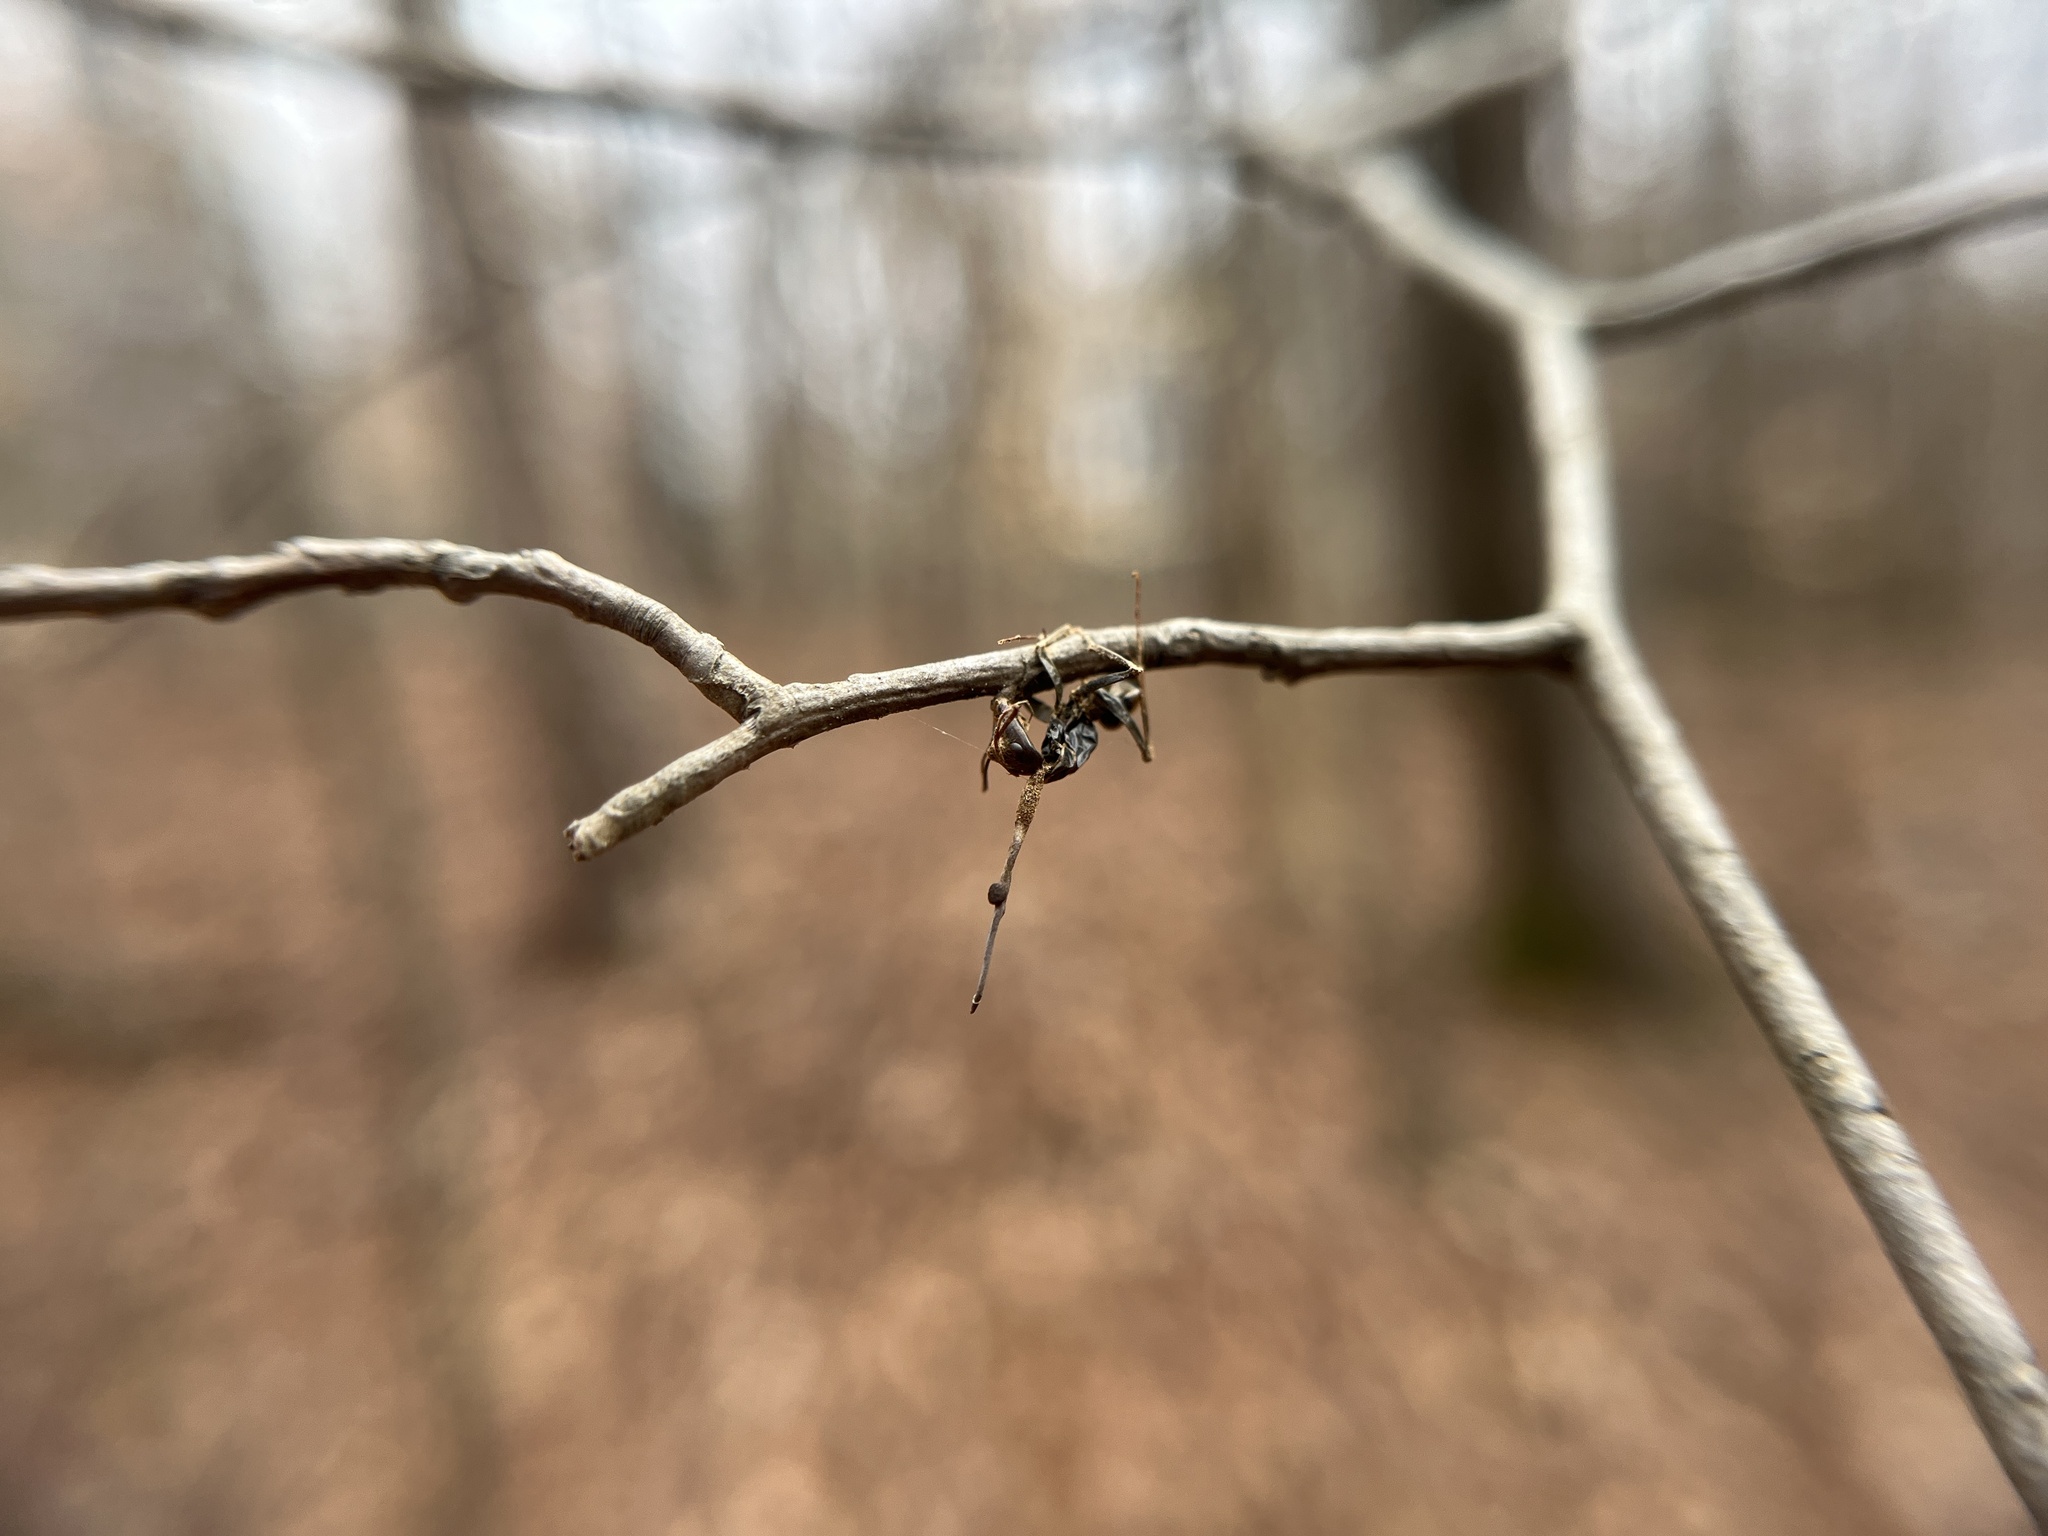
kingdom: Fungi
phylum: Ascomycota
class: Sordariomycetes
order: Hypocreales
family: Ophiocordycipitaceae
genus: Ophiocordyceps
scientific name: Ophiocordyceps kimflemingiae
